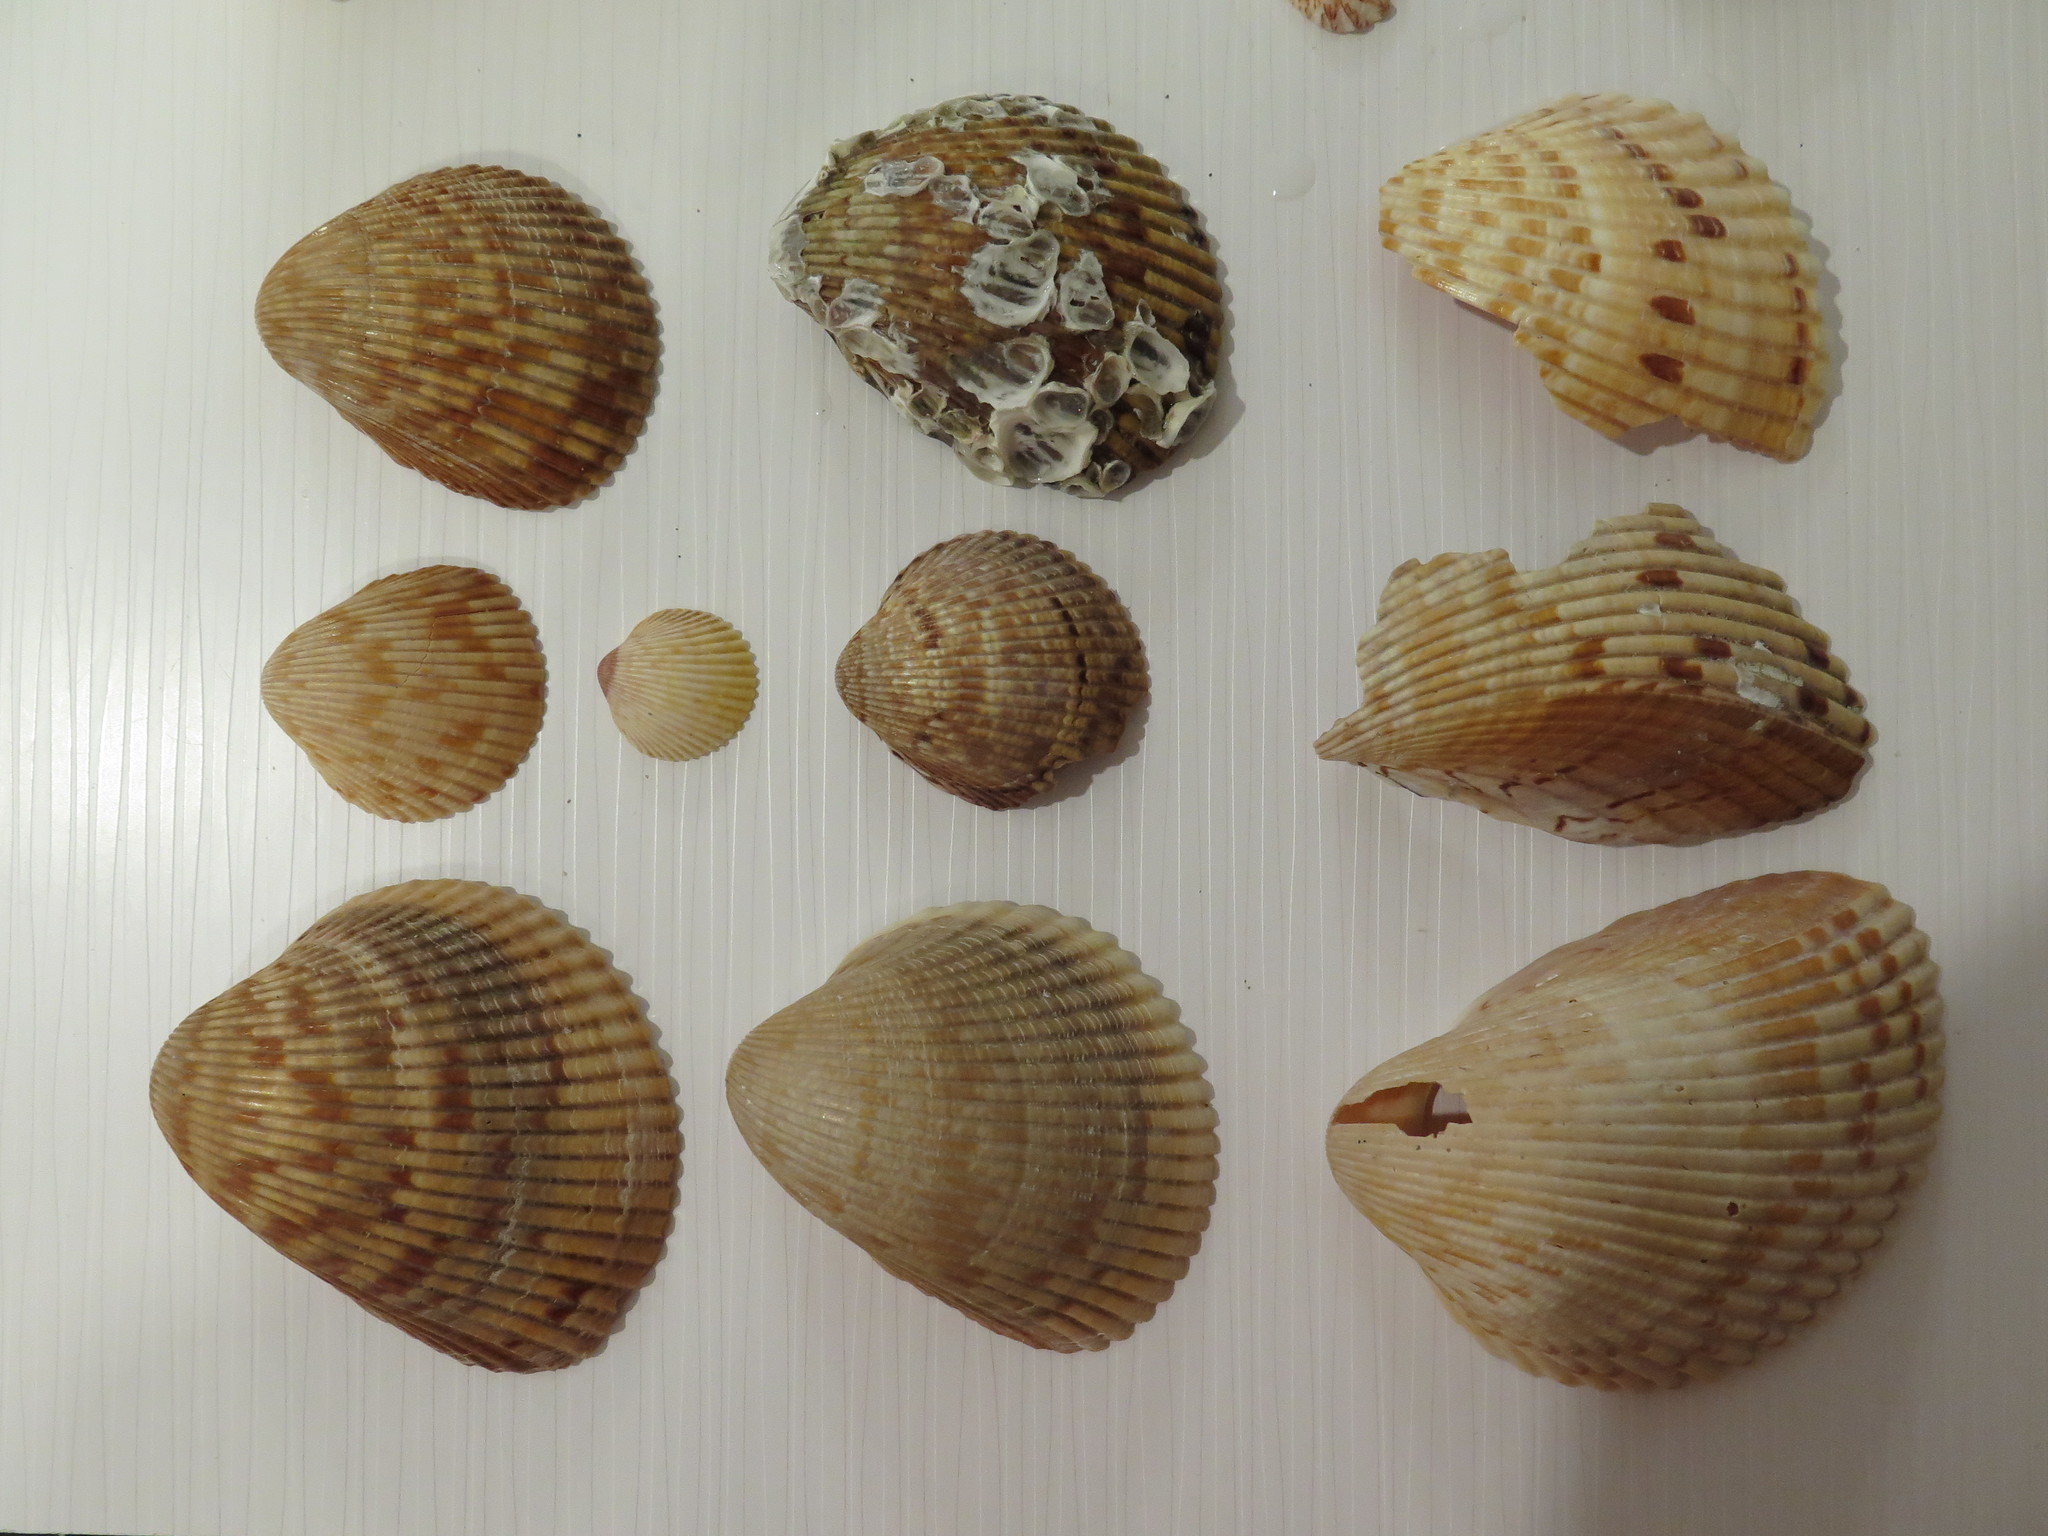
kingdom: Animalia
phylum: Mollusca
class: Bivalvia
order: Cardiida
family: Cardiidae
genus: Dinocardium
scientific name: Dinocardium robustum
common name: Atlantic giant cockle
